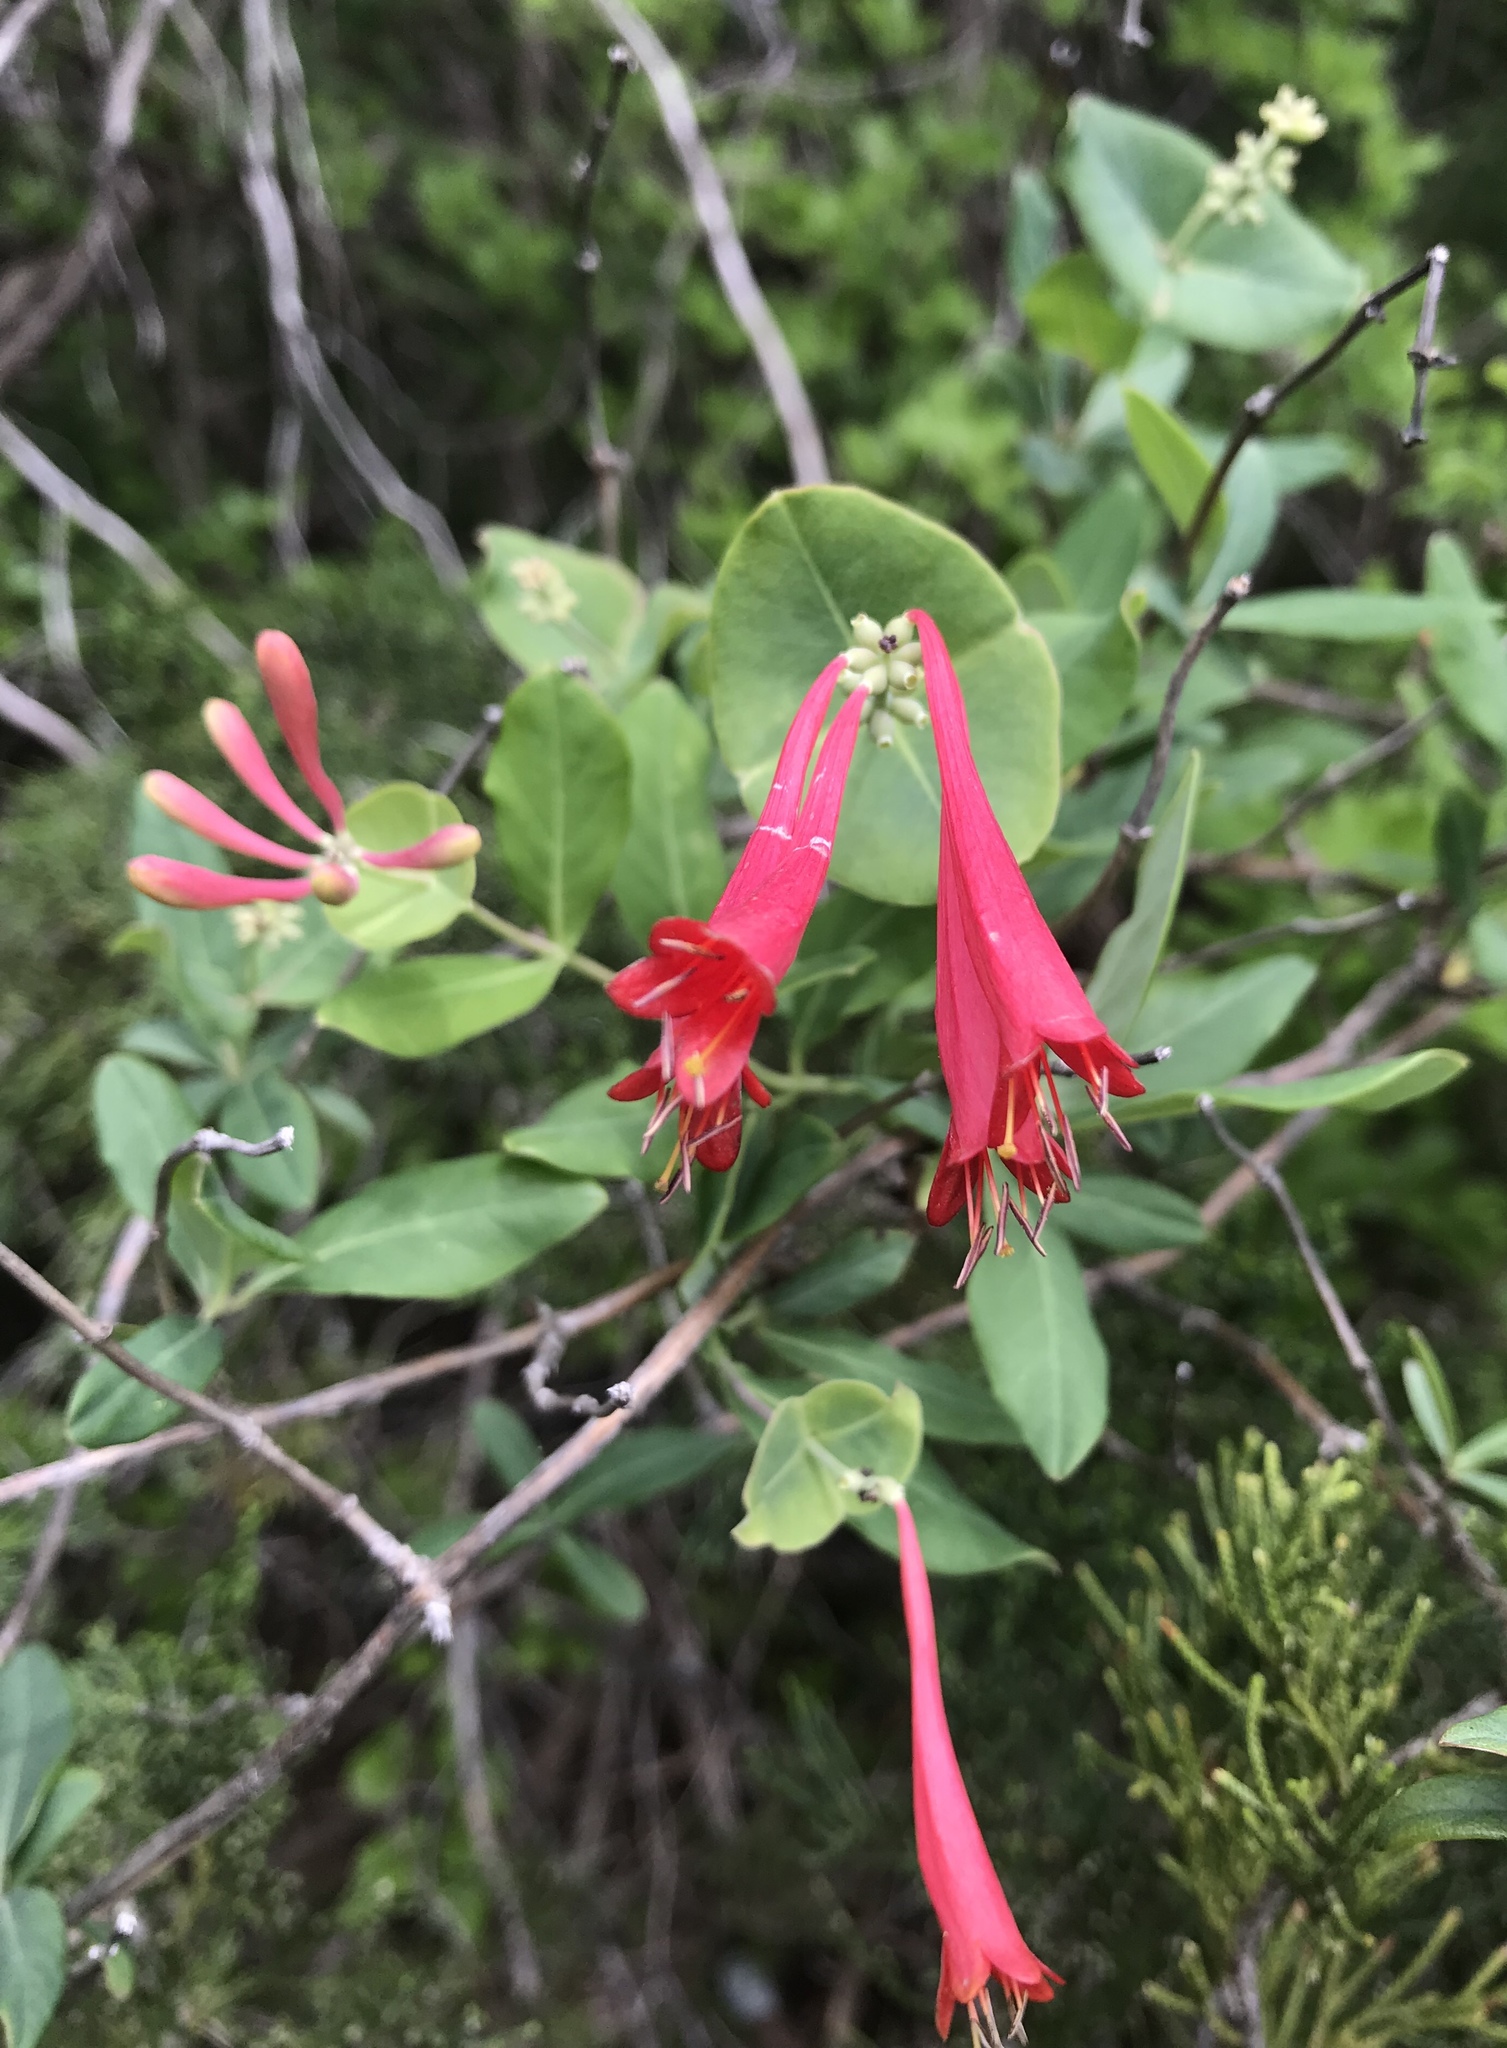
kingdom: Plantae
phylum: Tracheophyta
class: Magnoliopsida
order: Dipsacales
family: Caprifoliaceae
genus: Lonicera
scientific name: Lonicera sempervirens
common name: Coral honeysuckle
